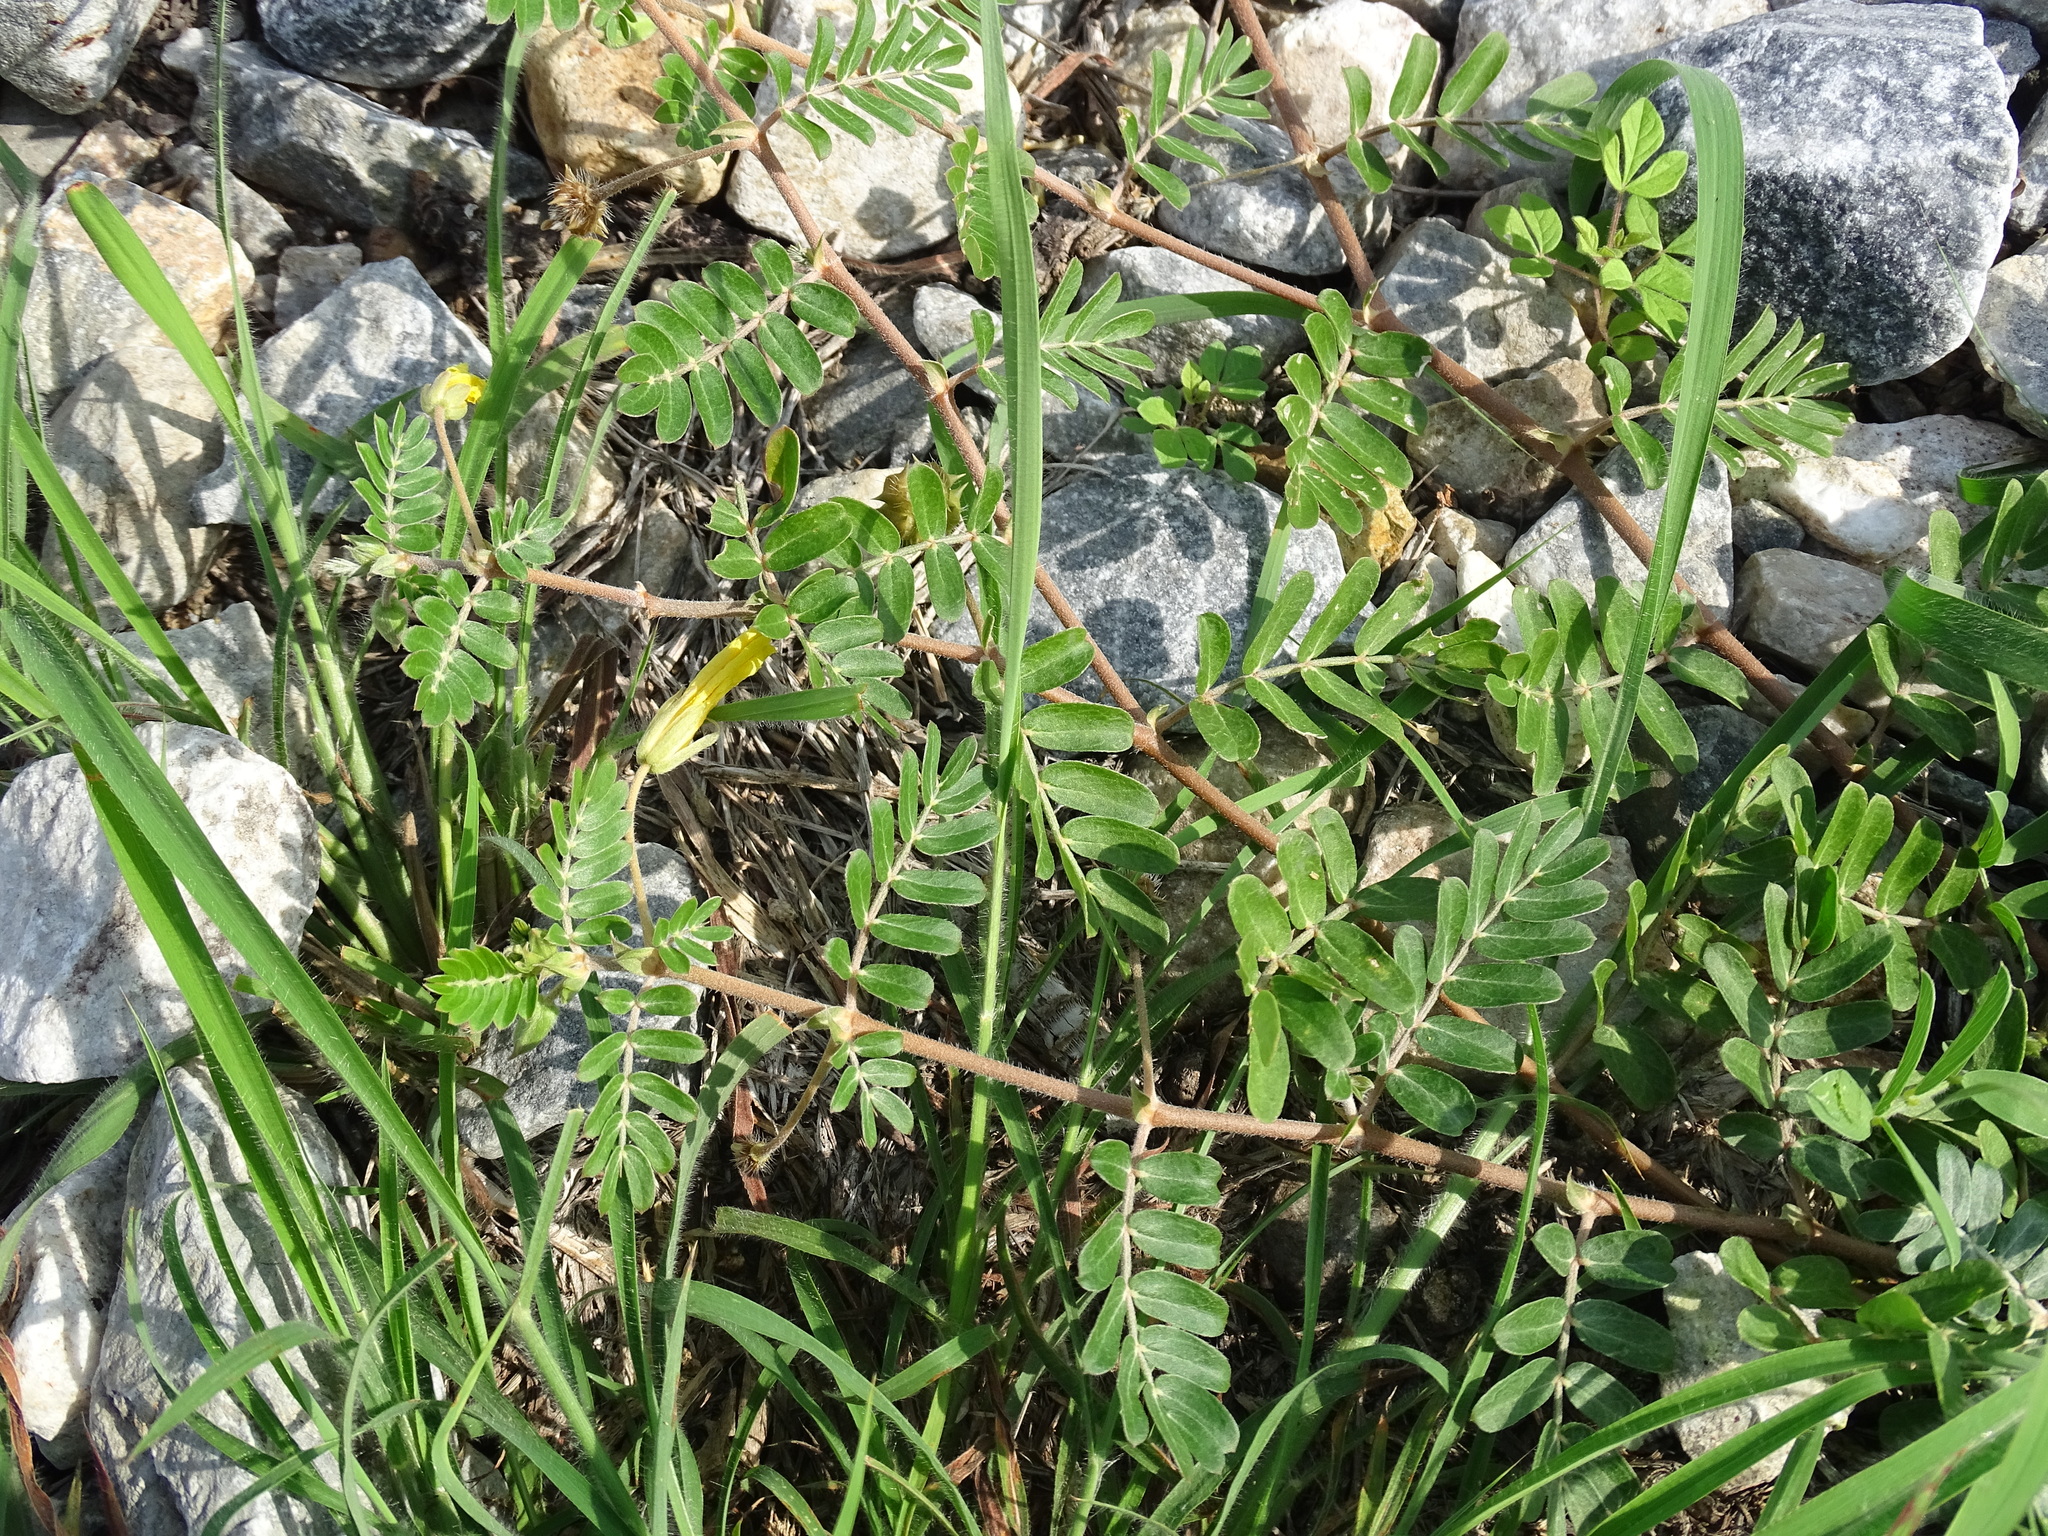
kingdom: Plantae
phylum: Tracheophyta
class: Magnoliopsida
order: Zygophyllales
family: Zygophyllaceae
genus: Tribulus
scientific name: Tribulus cistoides
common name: Jamaican feverplant
